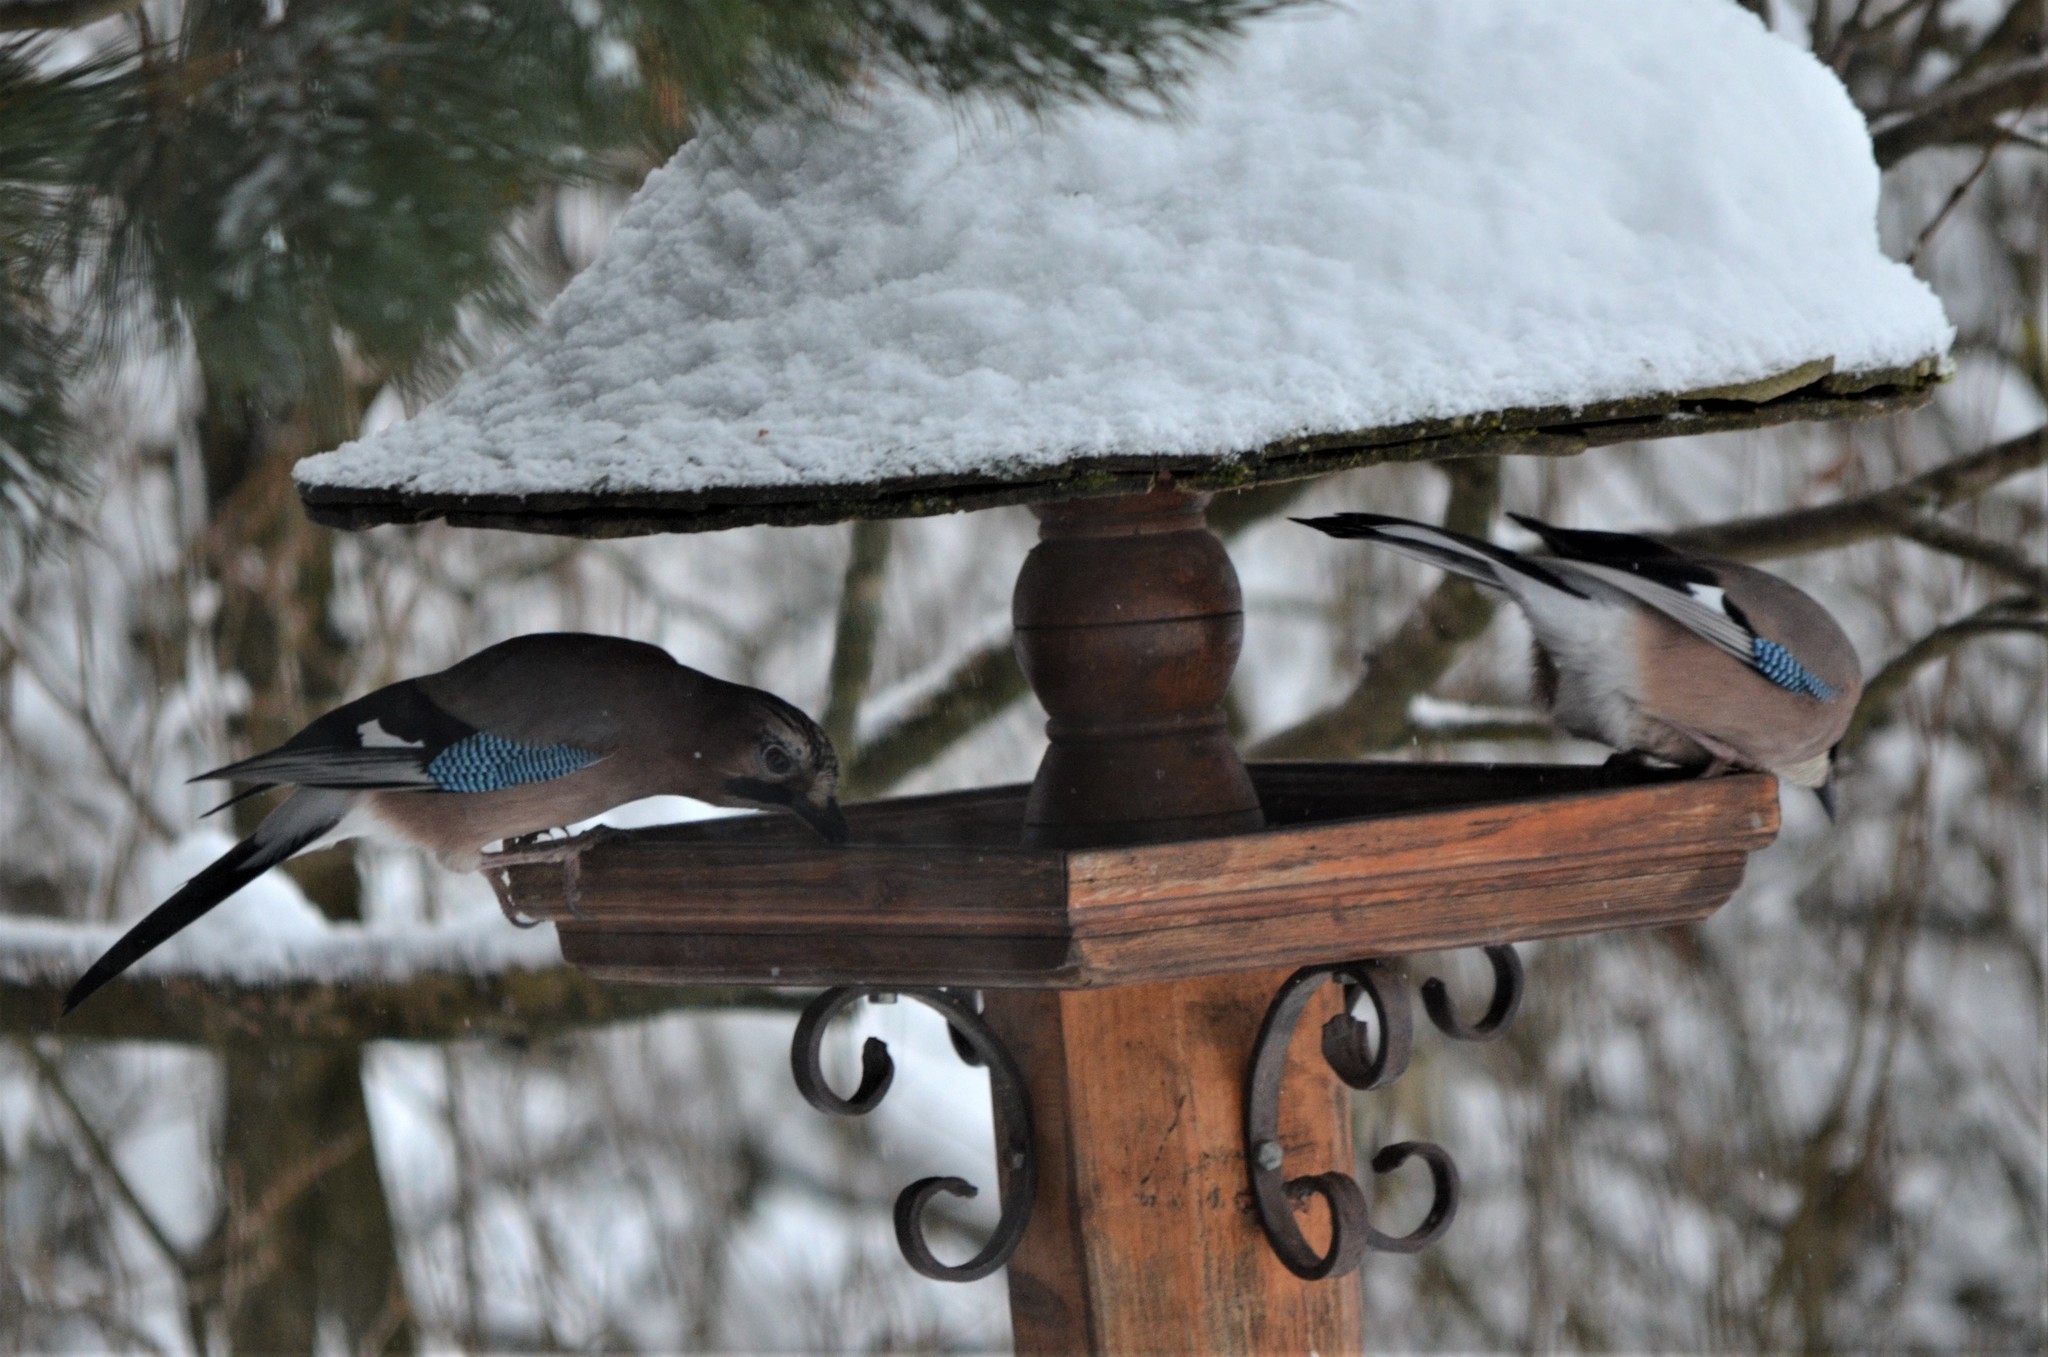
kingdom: Animalia
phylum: Chordata
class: Aves
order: Passeriformes
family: Corvidae
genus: Garrulus
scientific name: Garrulus glandarius
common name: Eurasian jay
